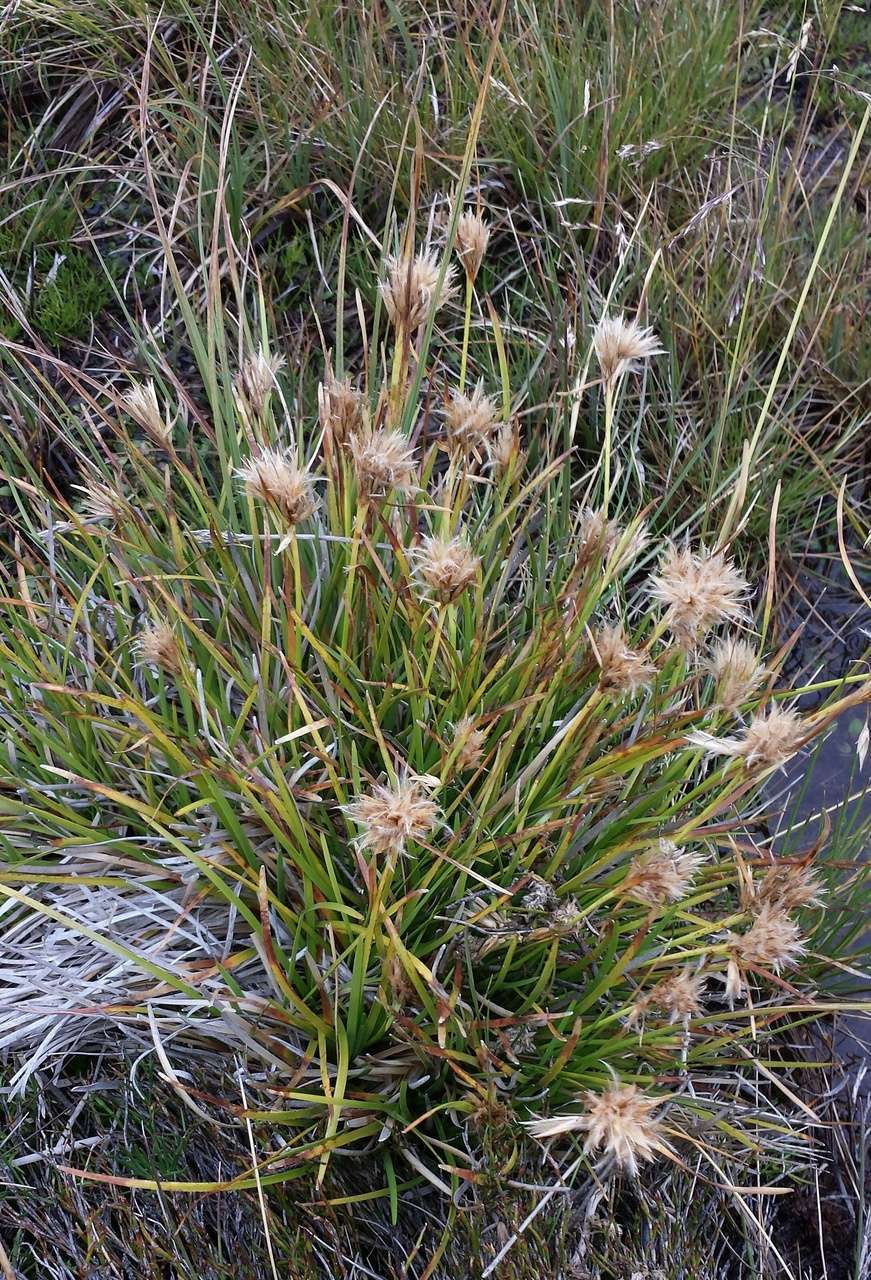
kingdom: Plantae
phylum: Tracheophyta
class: Liliopsida
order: Poales
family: Cyperaceae
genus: Carpha
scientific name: Carpha nivicola
